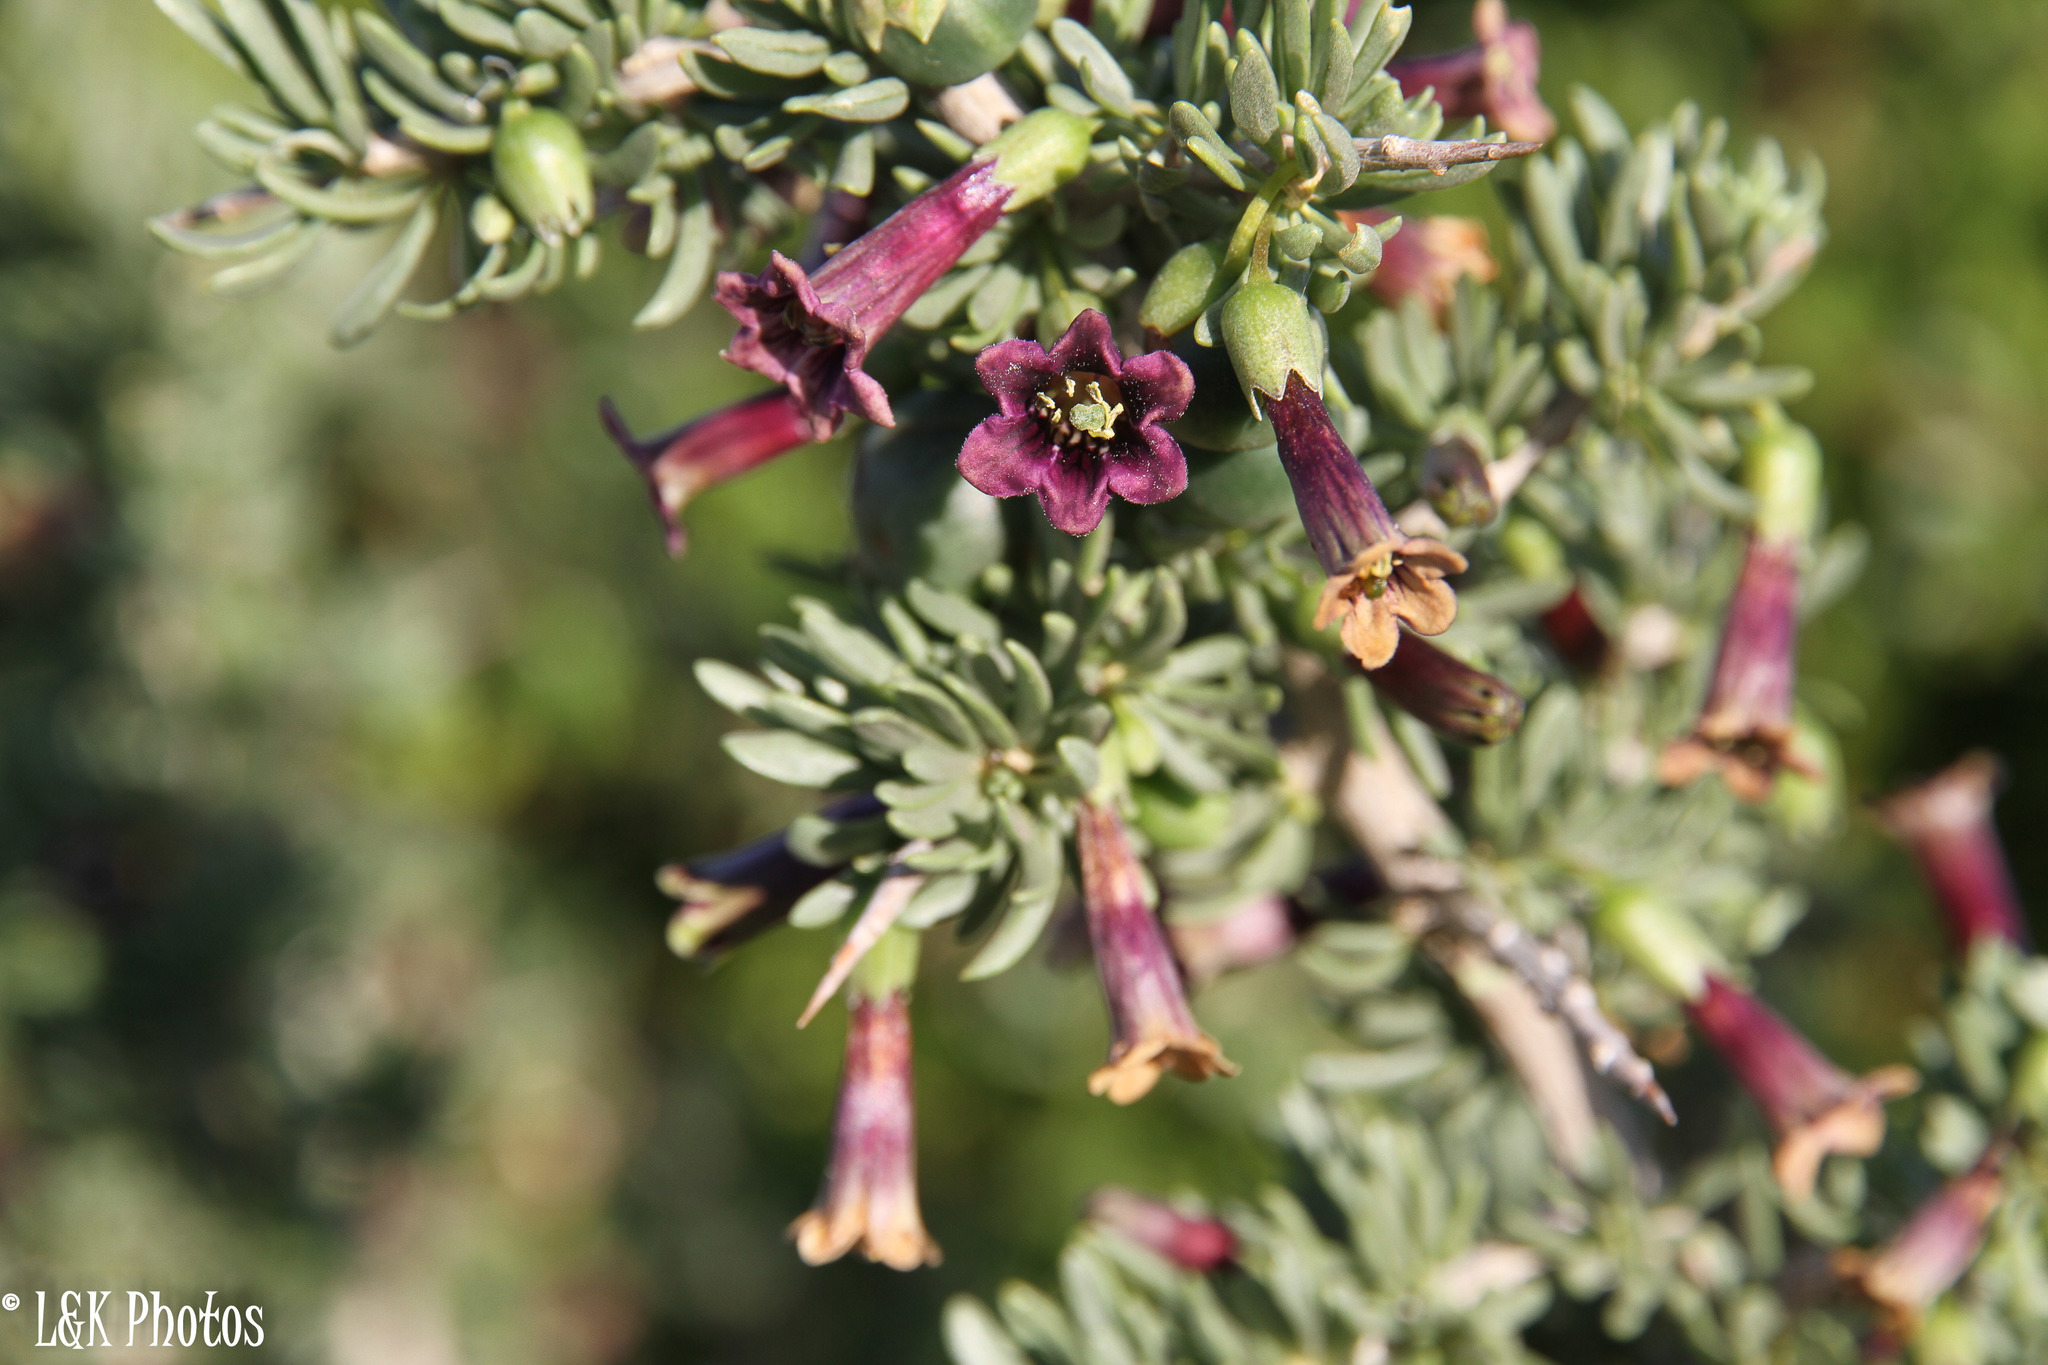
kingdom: Plantae
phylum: Tracheophyta
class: Magnoliopsida
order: Solanales
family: Solanaceae
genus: Lycium
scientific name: Lycium afrum
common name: Kaffir boxthorn
